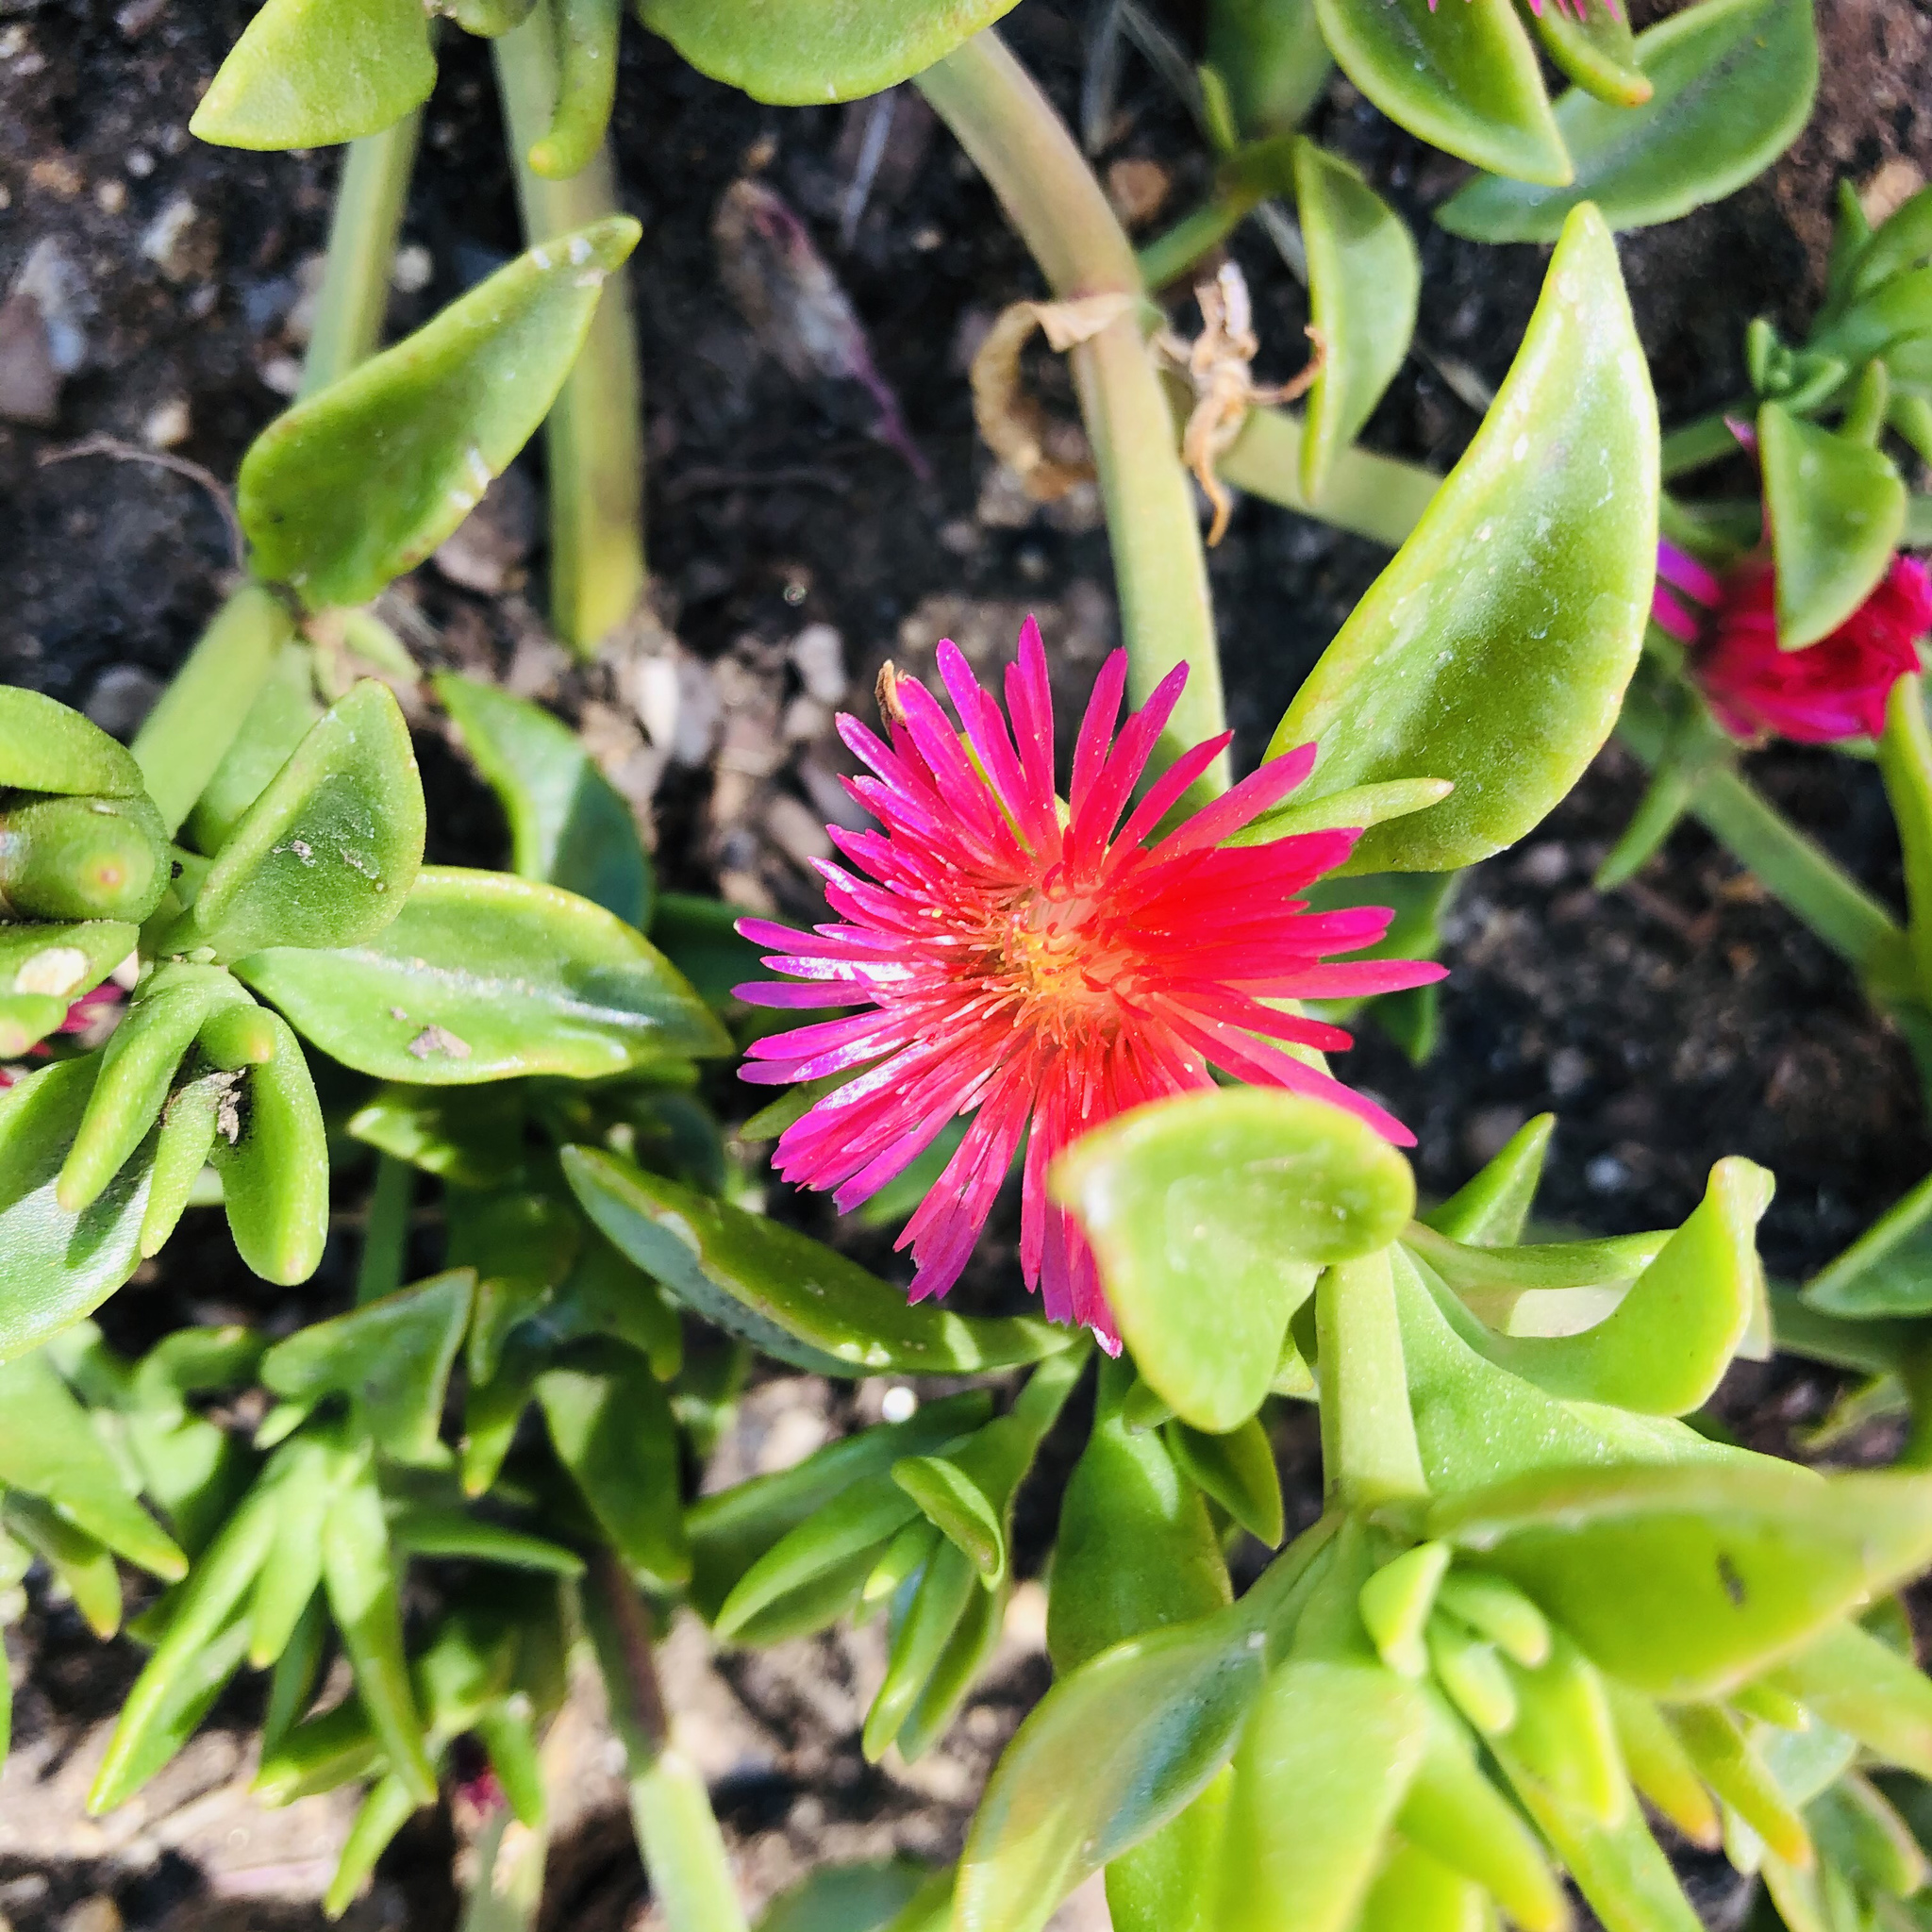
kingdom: Plantae
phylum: Tracheophyta
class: Magnoliopsida
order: Caryophyllales
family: Aizoaceae
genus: Mesembryanthemum
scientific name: Mesembryanthemum cordifolium
